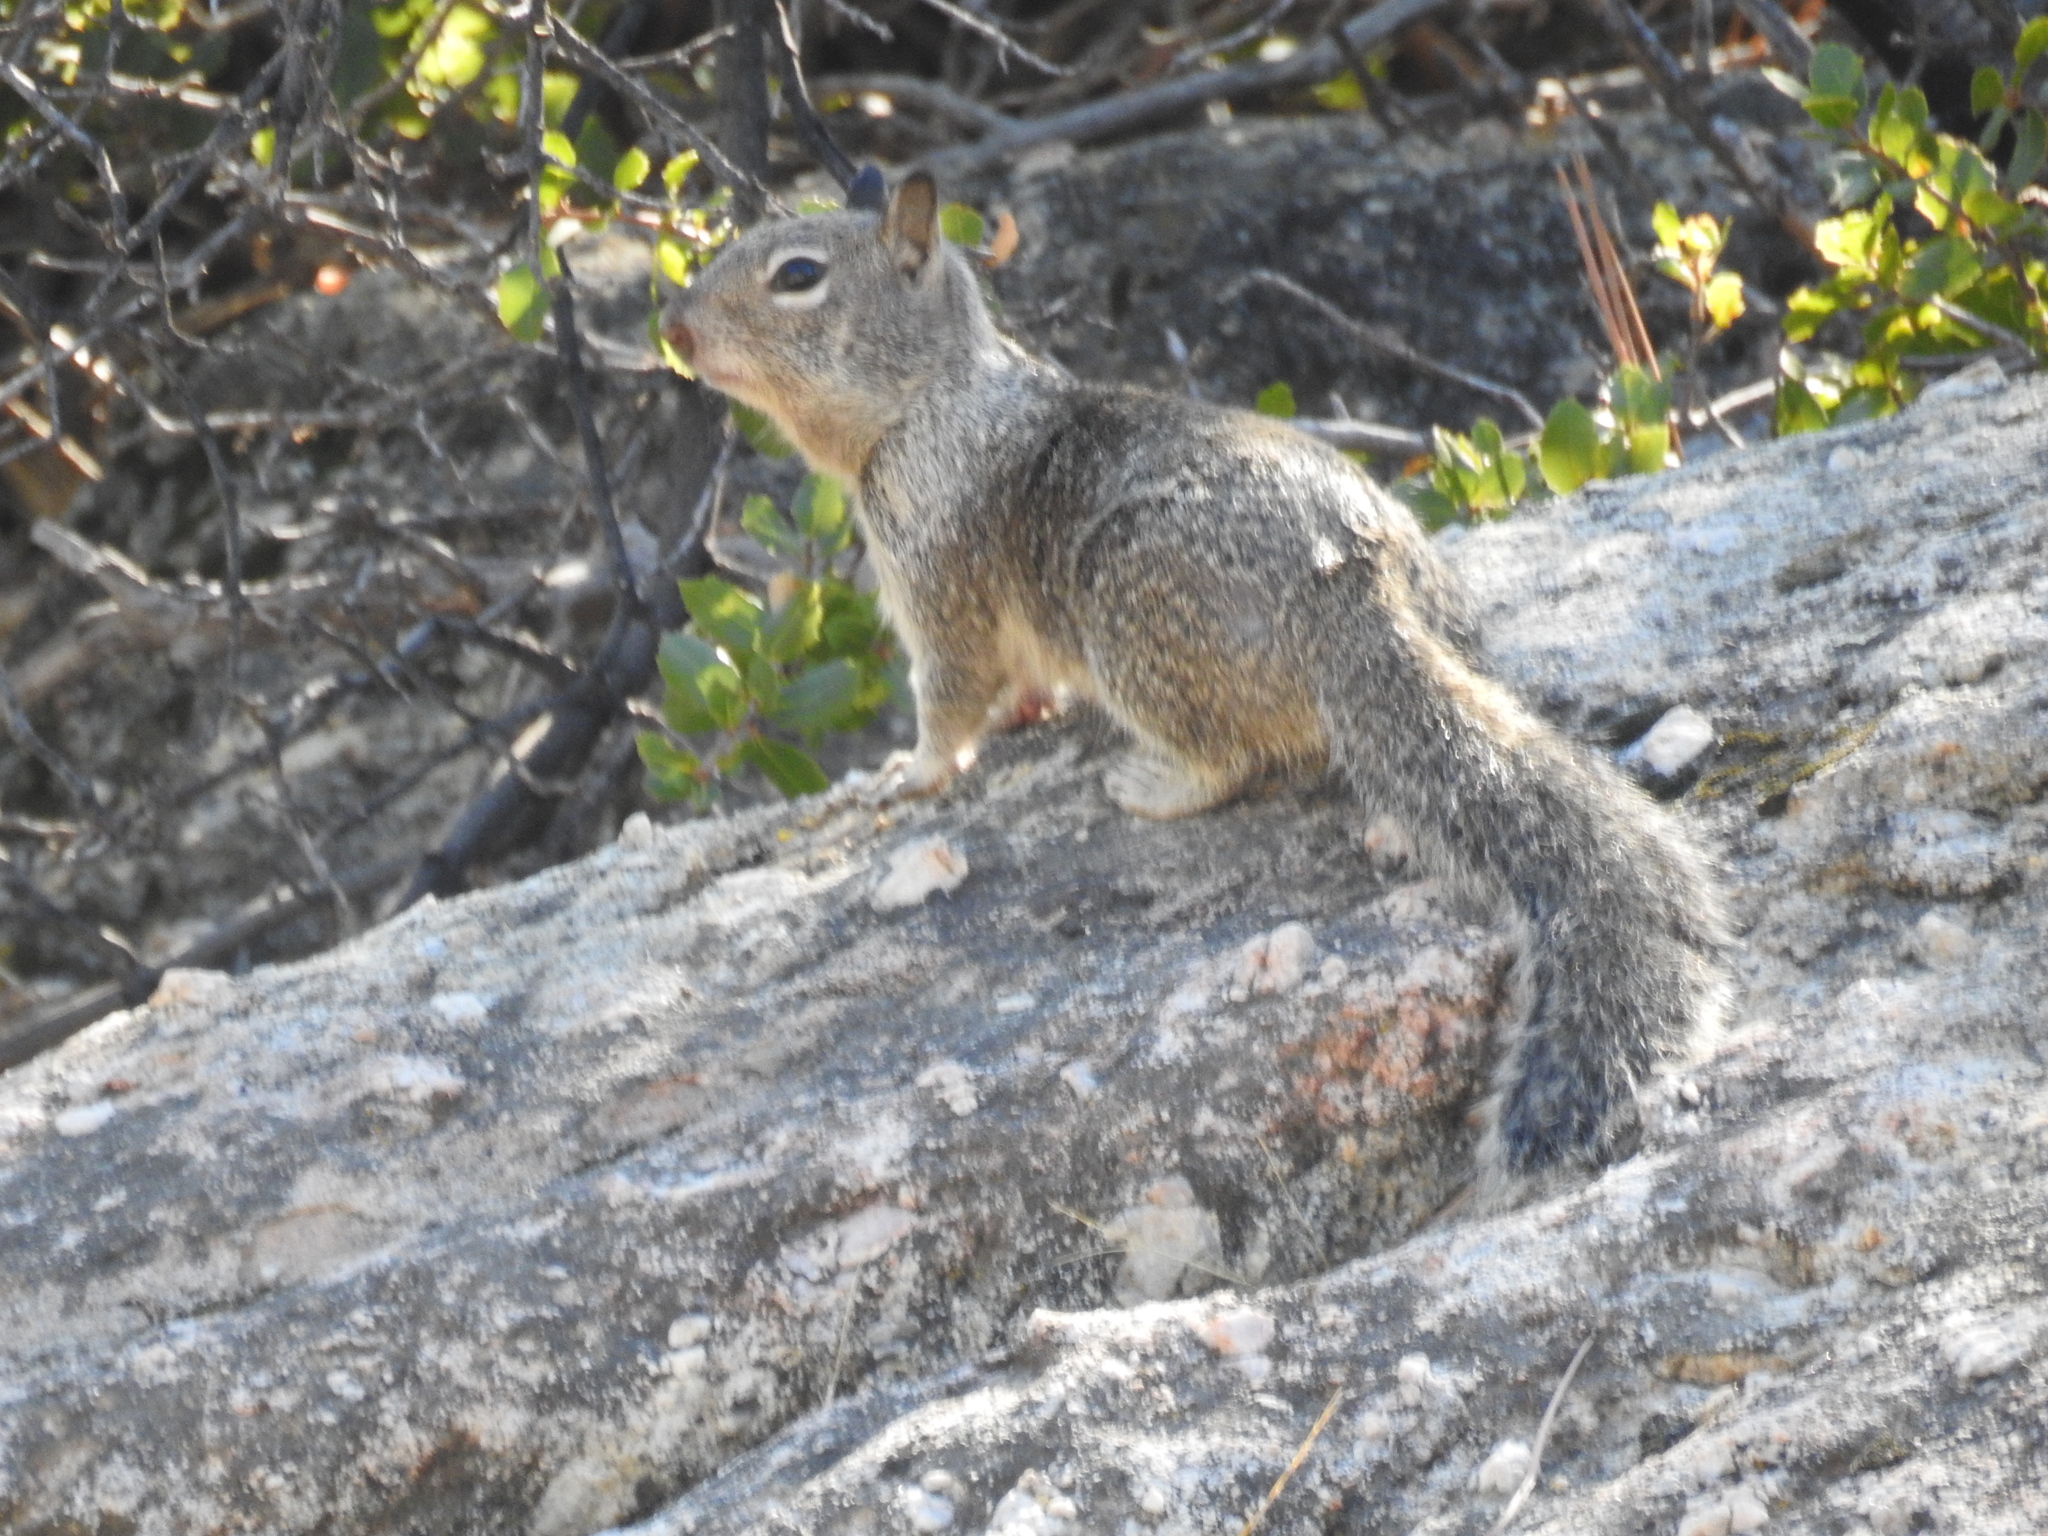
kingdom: Animalia
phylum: Chordata
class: Mammalia
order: Rodentia
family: Sciuridae
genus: Otospermophilus
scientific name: Otospermophilus beecheyi
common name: California ground squirrel
